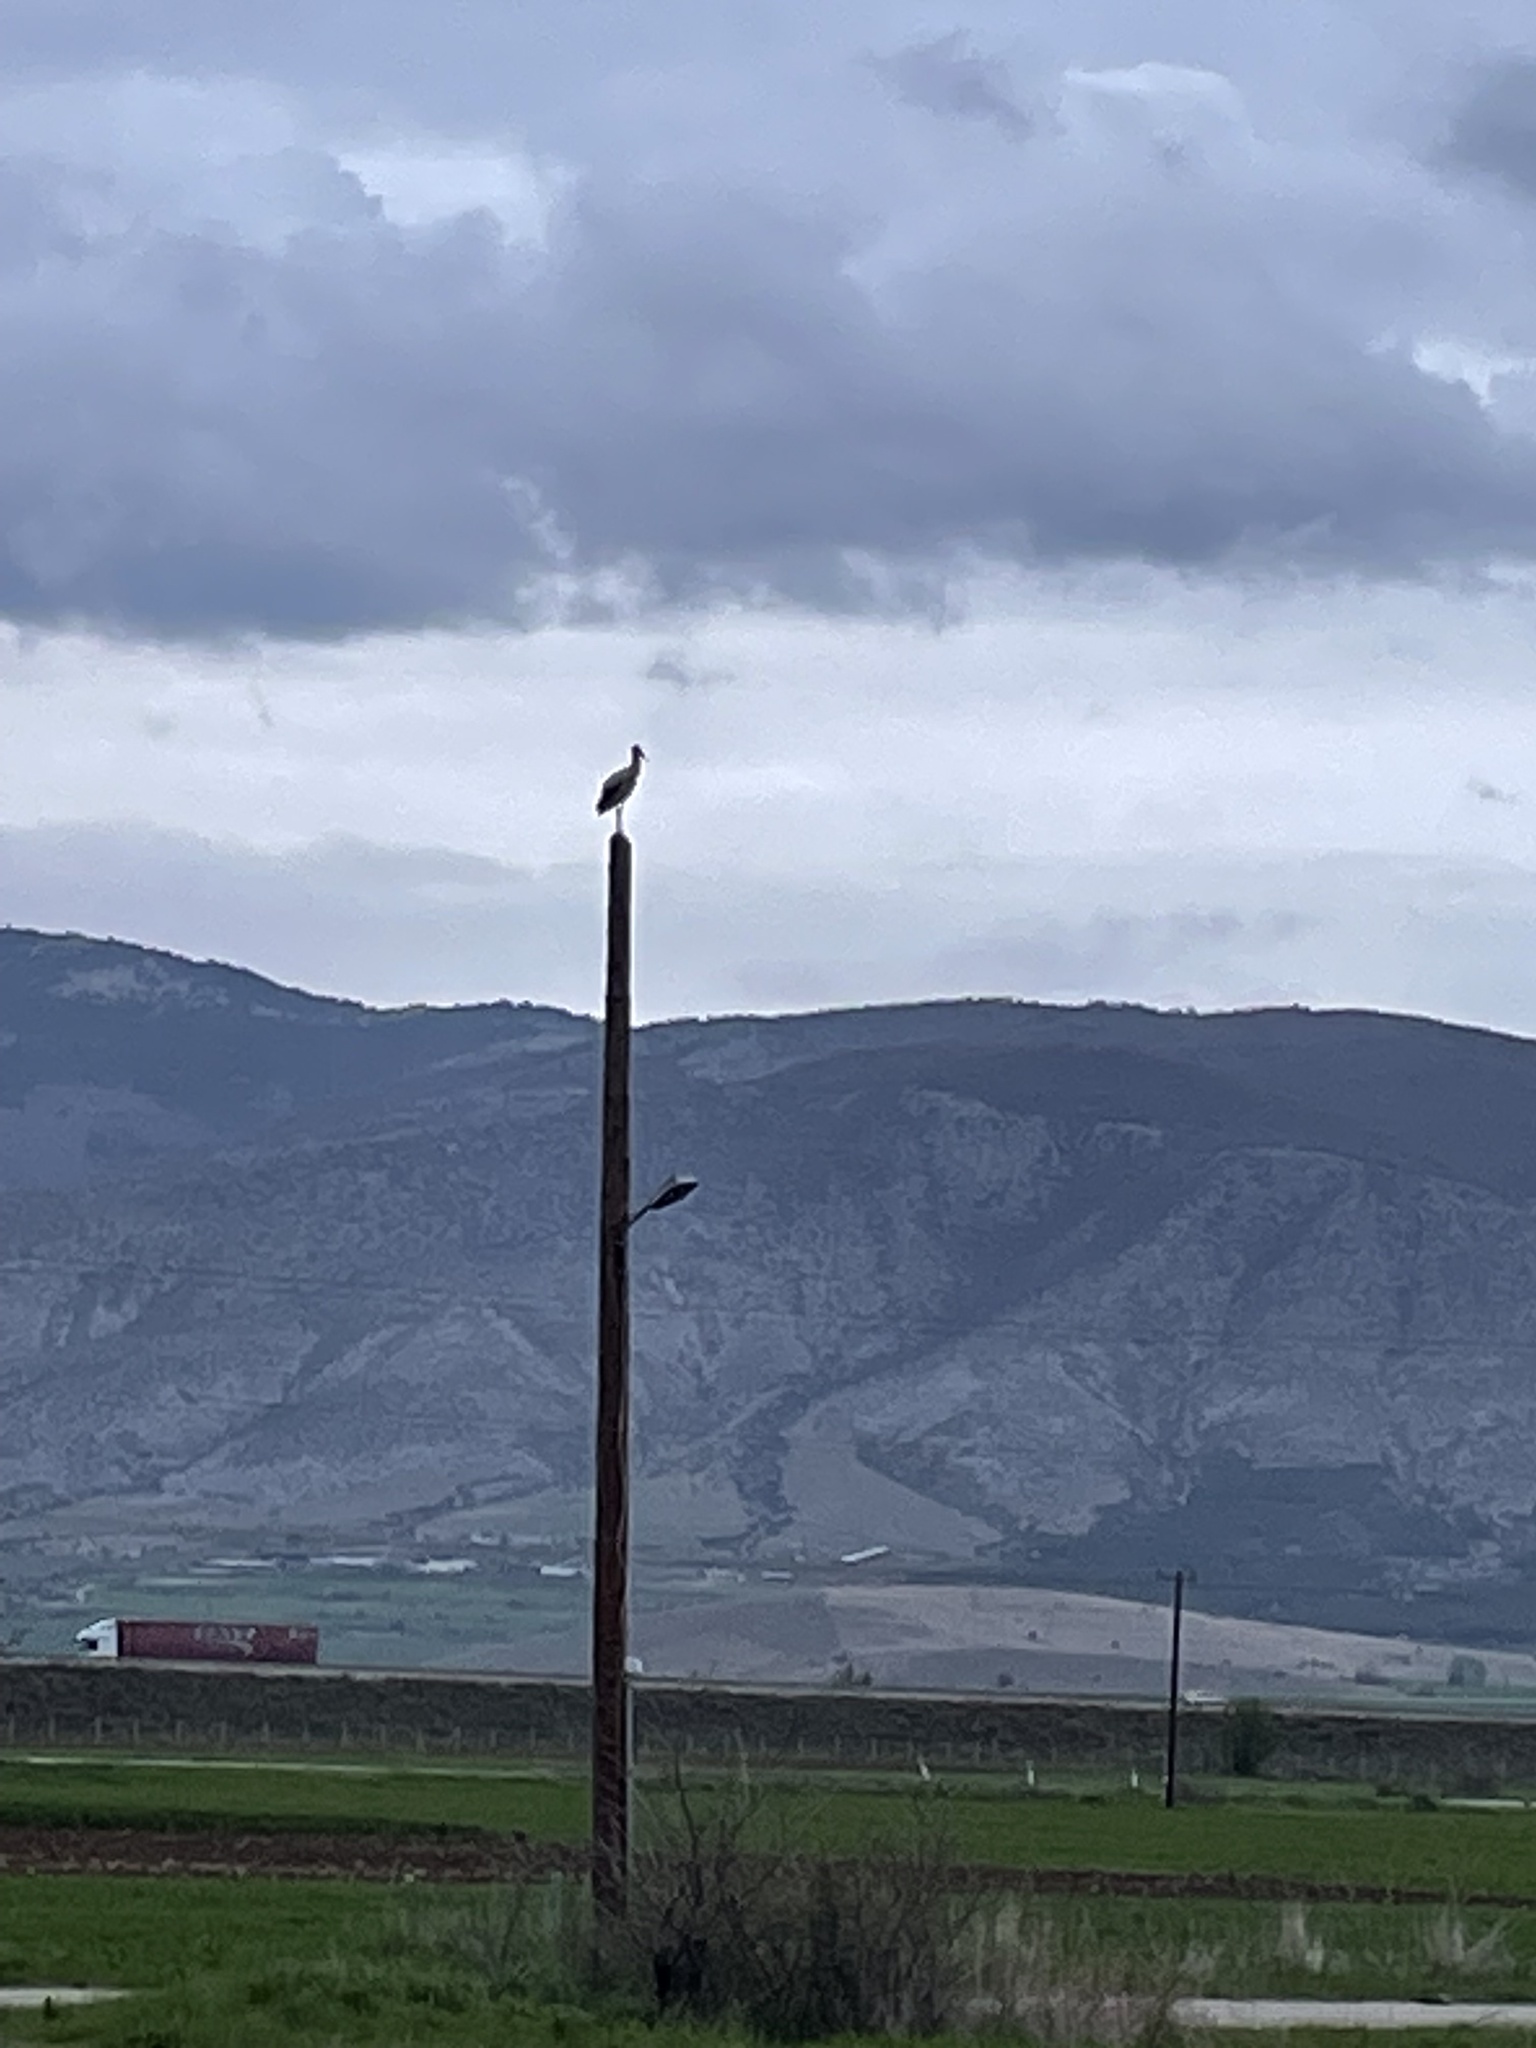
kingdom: Animalia
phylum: Chordata
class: Aves
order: Ciconiiformes
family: Ciconiidae
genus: Ciconia
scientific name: Ciconia ciconia
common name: White stork
